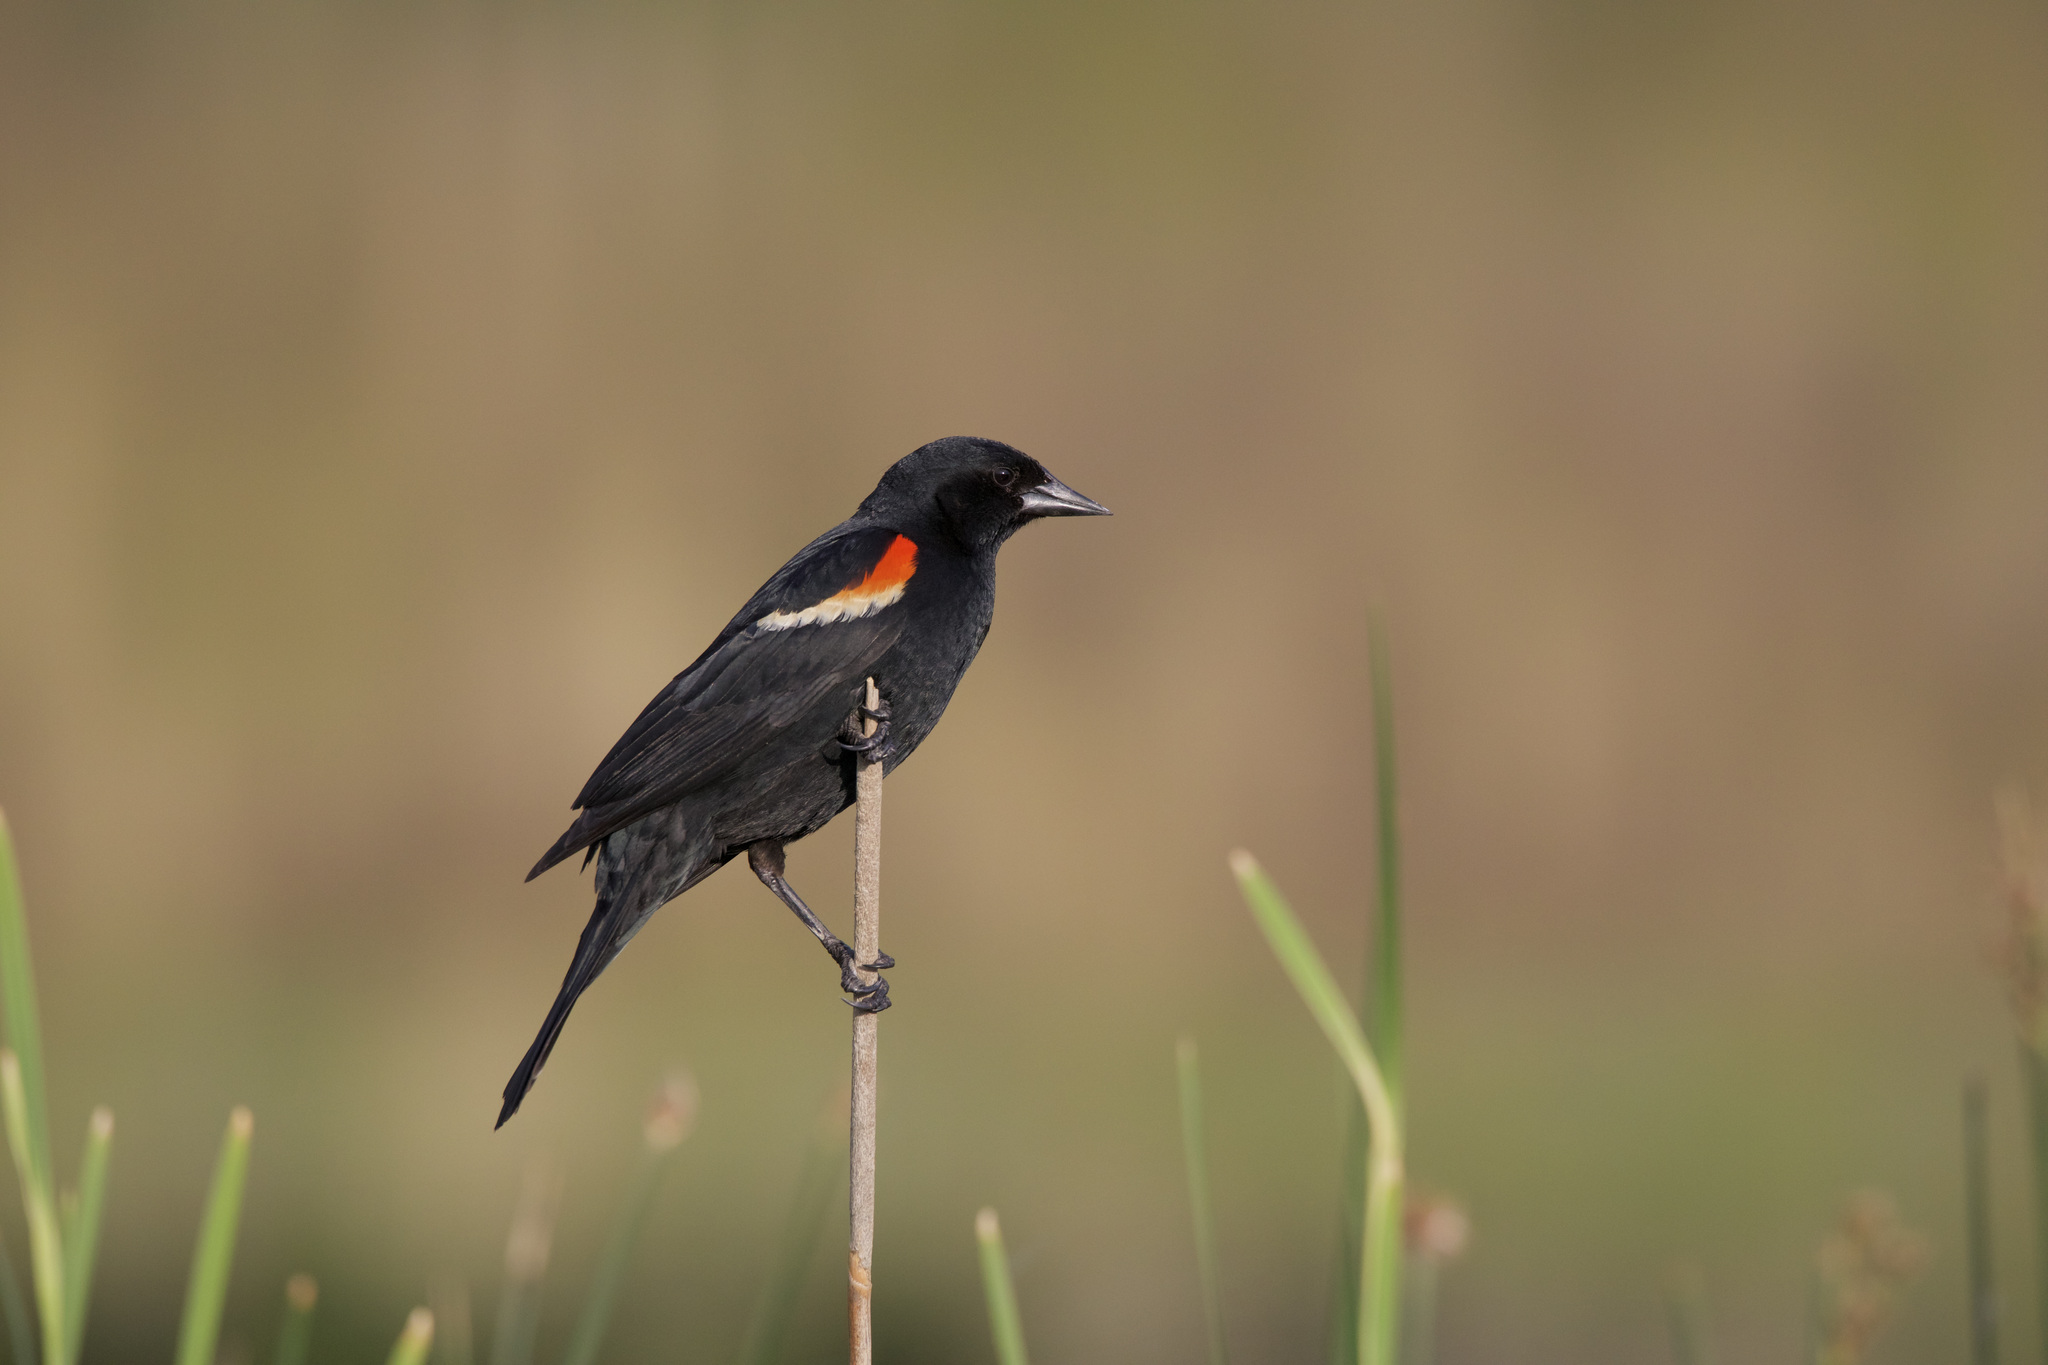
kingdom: Animalia
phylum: Chordata
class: Aves
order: Passeriformes
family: Icteridae
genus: Agelaius
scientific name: Agelaius phoeniceus
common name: Red-winged blackbird
